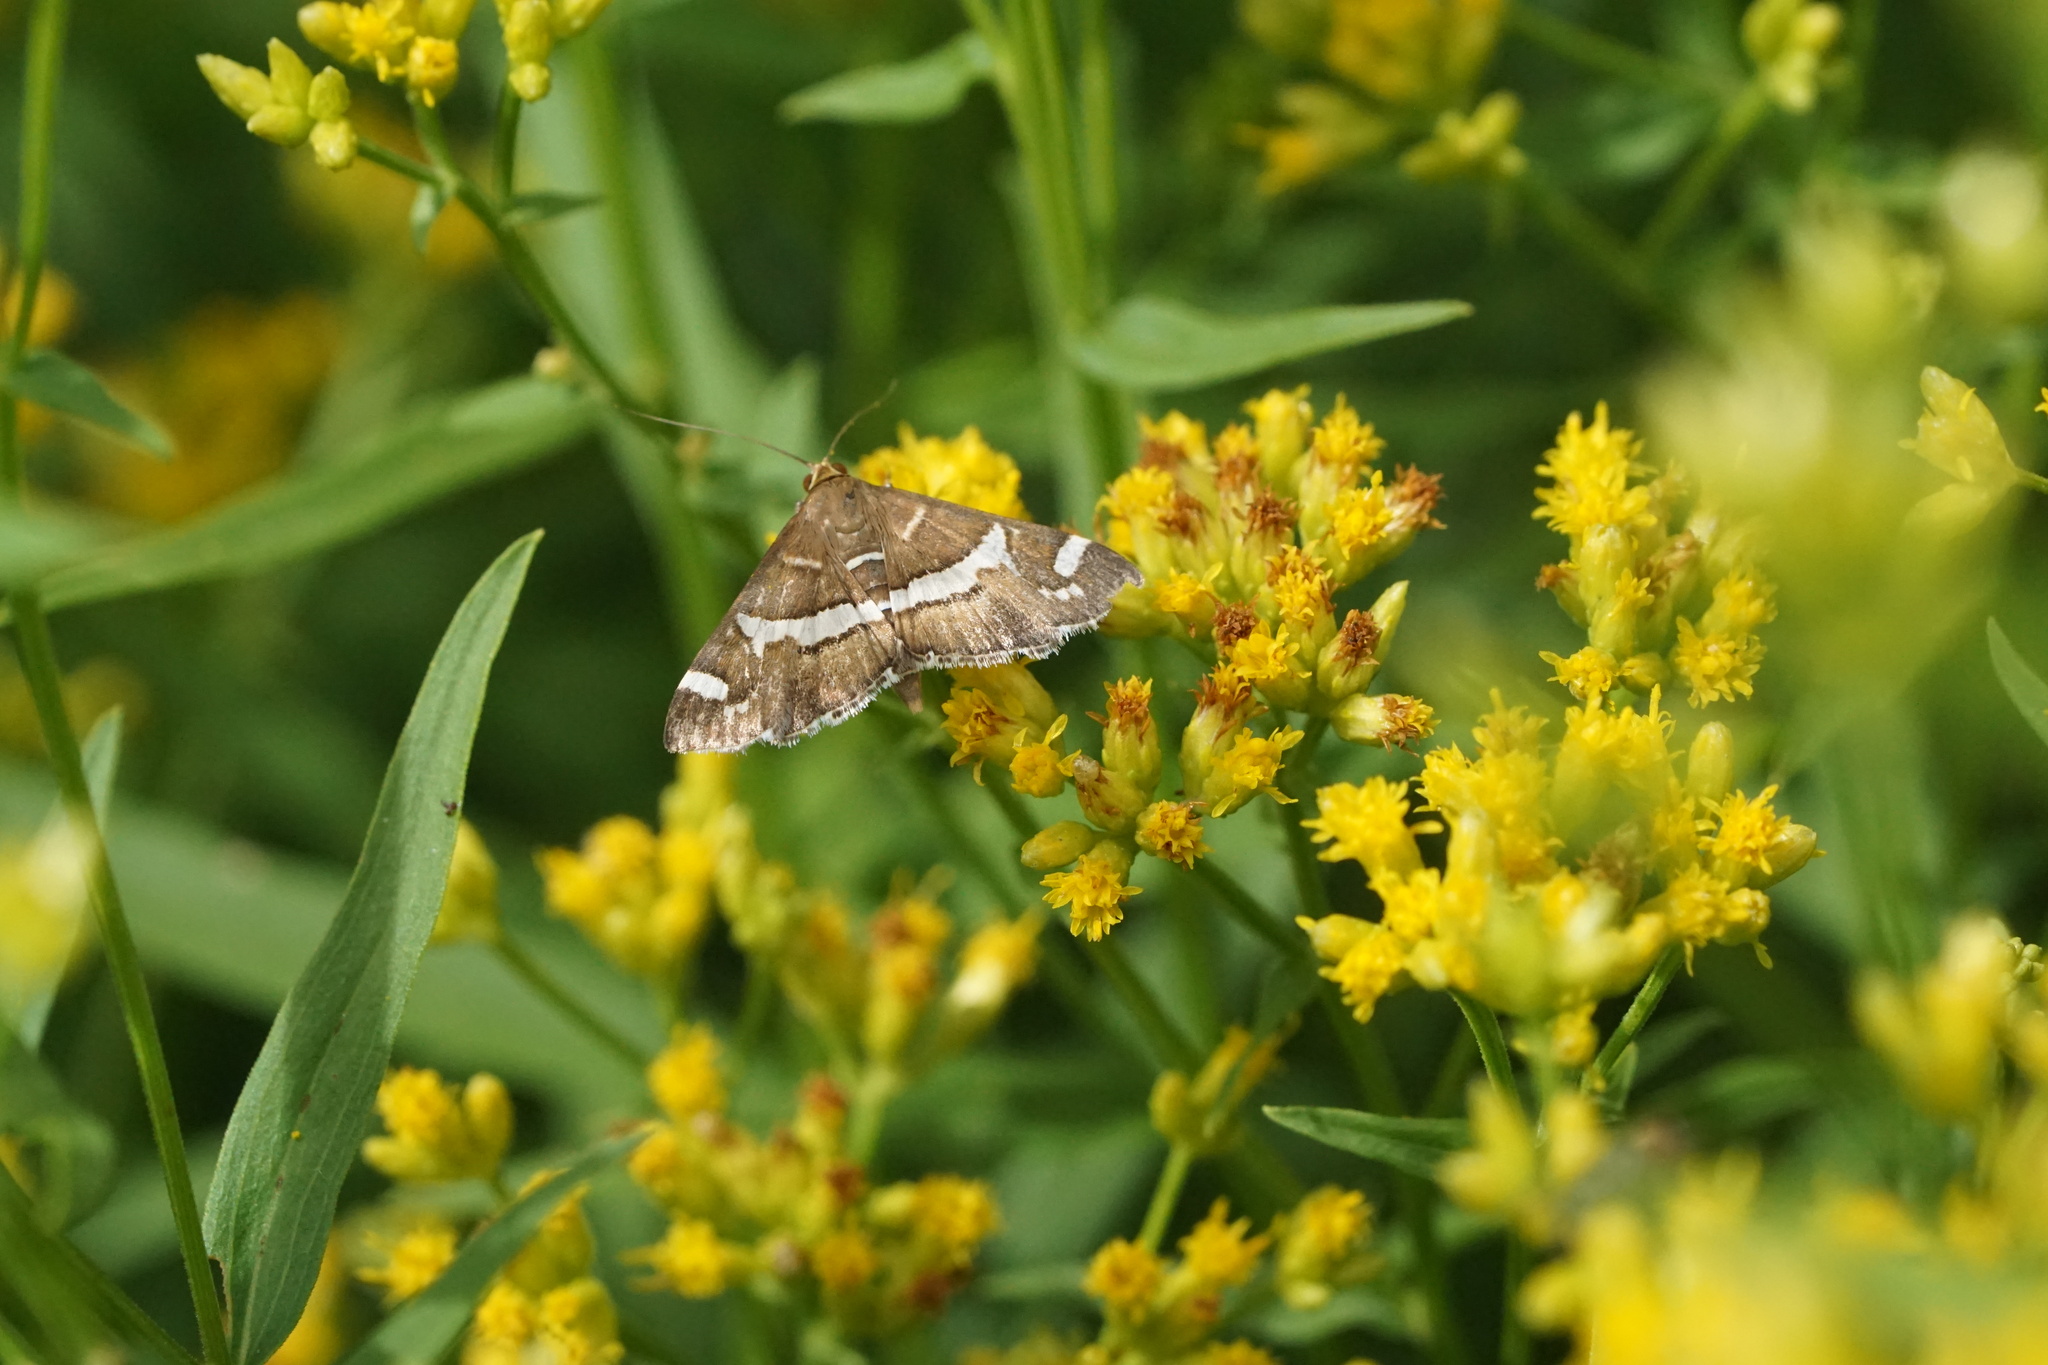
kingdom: Animalia
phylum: Arthropoda
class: Insecta
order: Lepidoptera
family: Crambidae
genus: Spoladea
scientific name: Spoladea recurvalis
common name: Beet webworm moth
